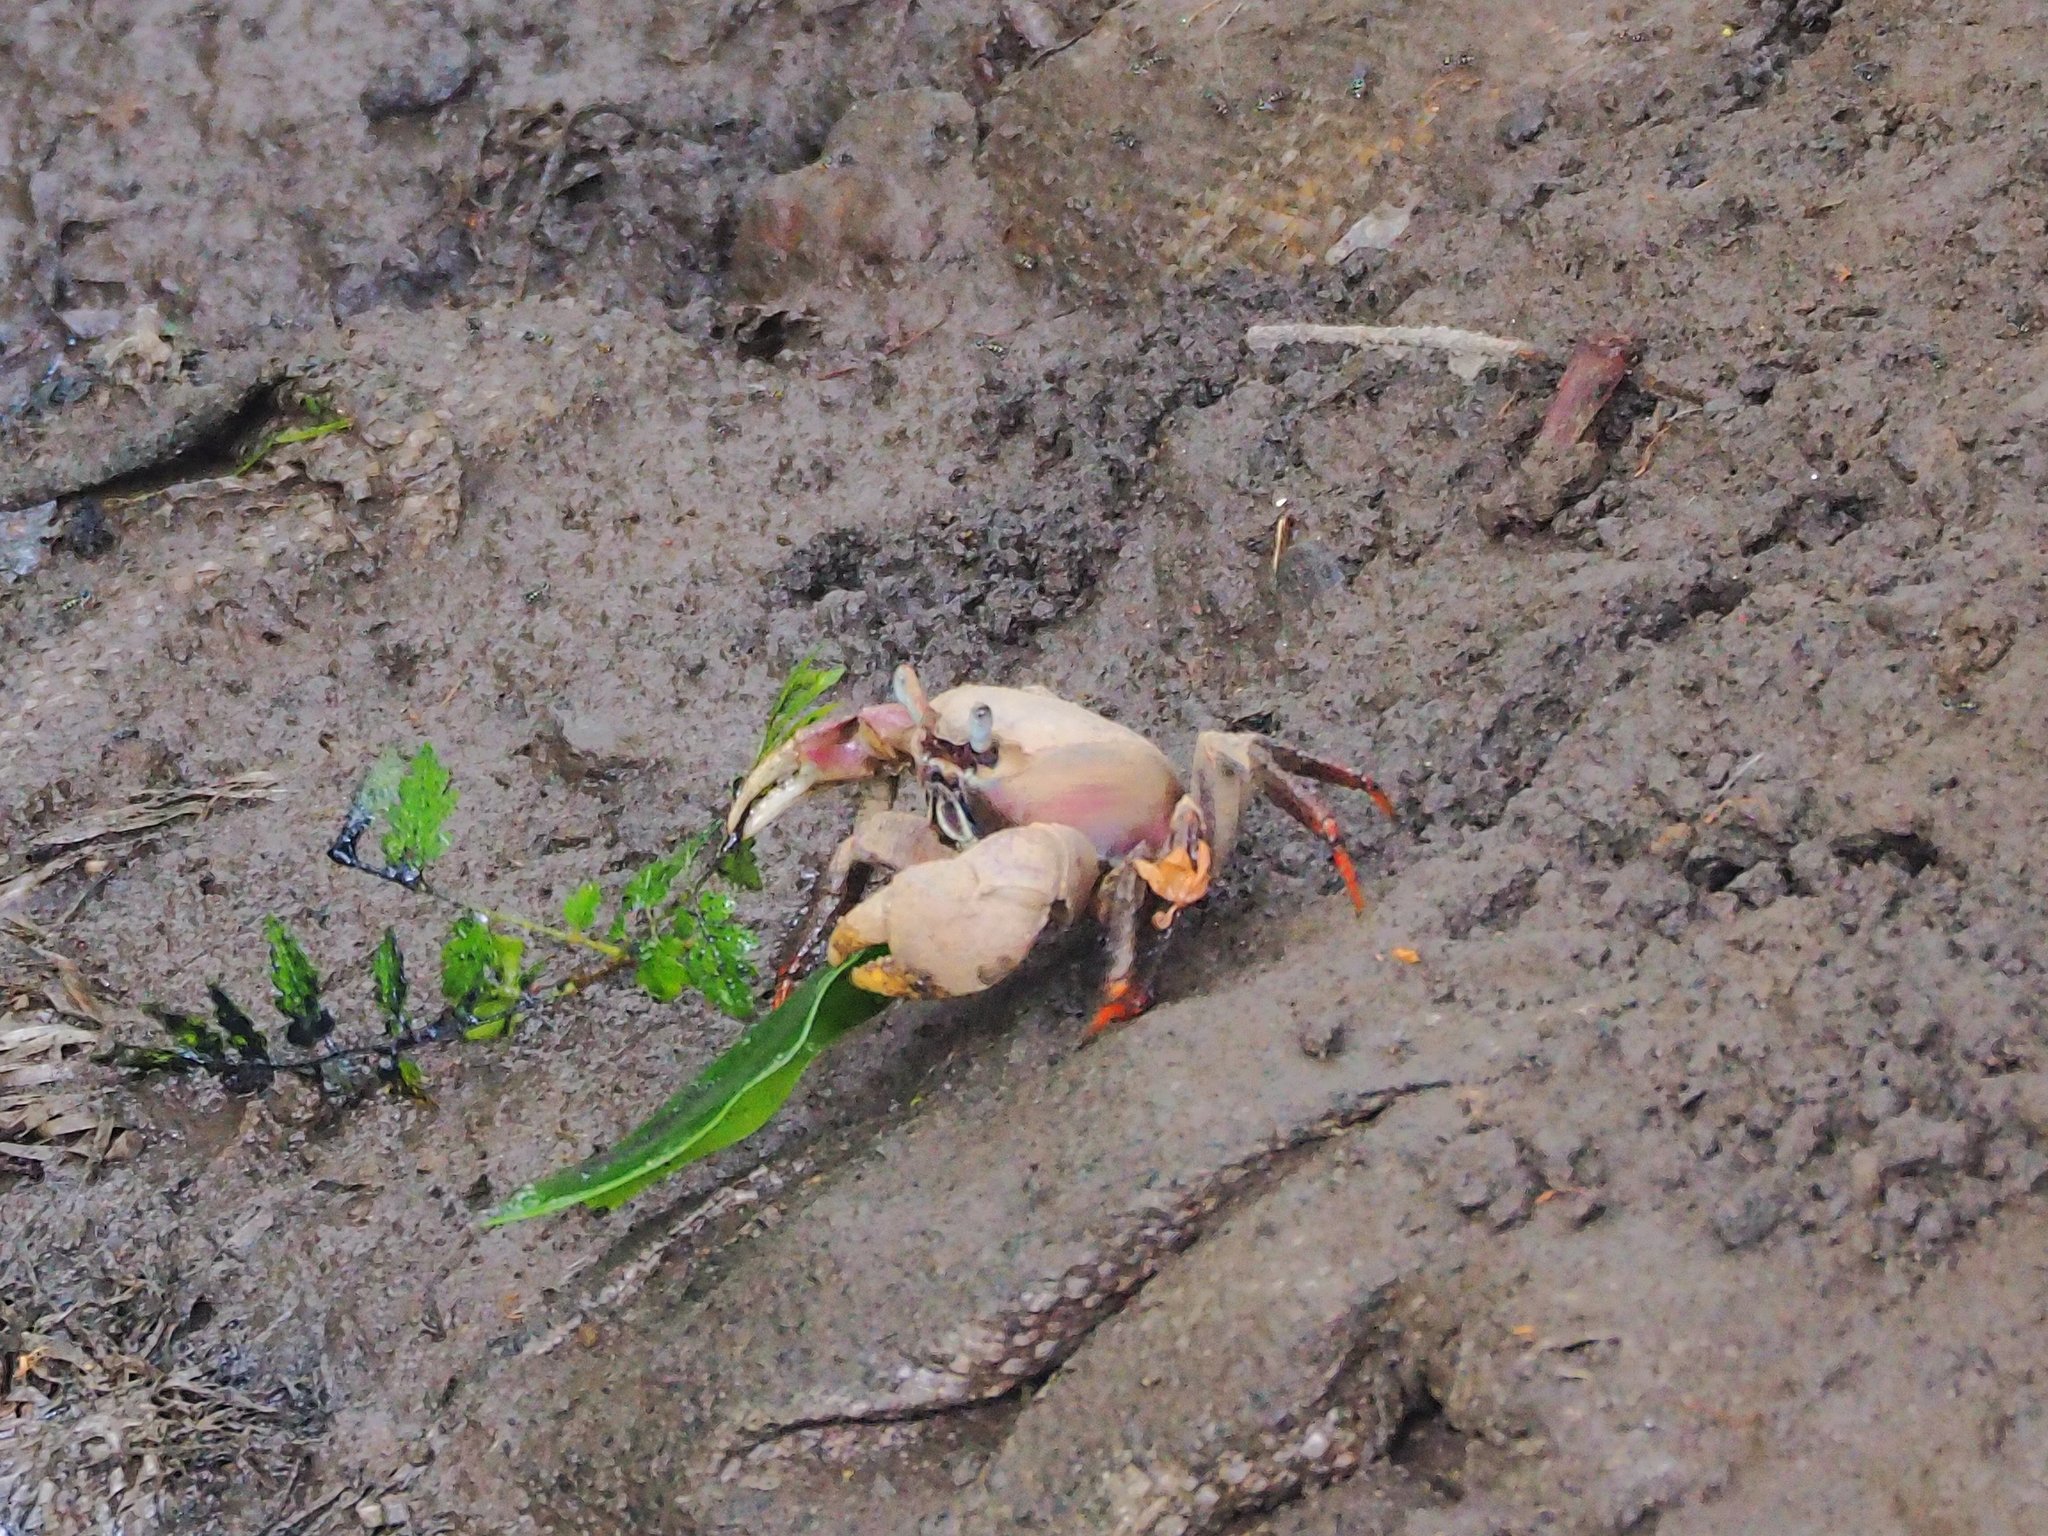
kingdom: Animalia
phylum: Arthropoda
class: Malacostraca
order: Decapoda
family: Gecarcinidae
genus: Cardisoma
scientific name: Cardisoma carnifex
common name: Brown land crab
